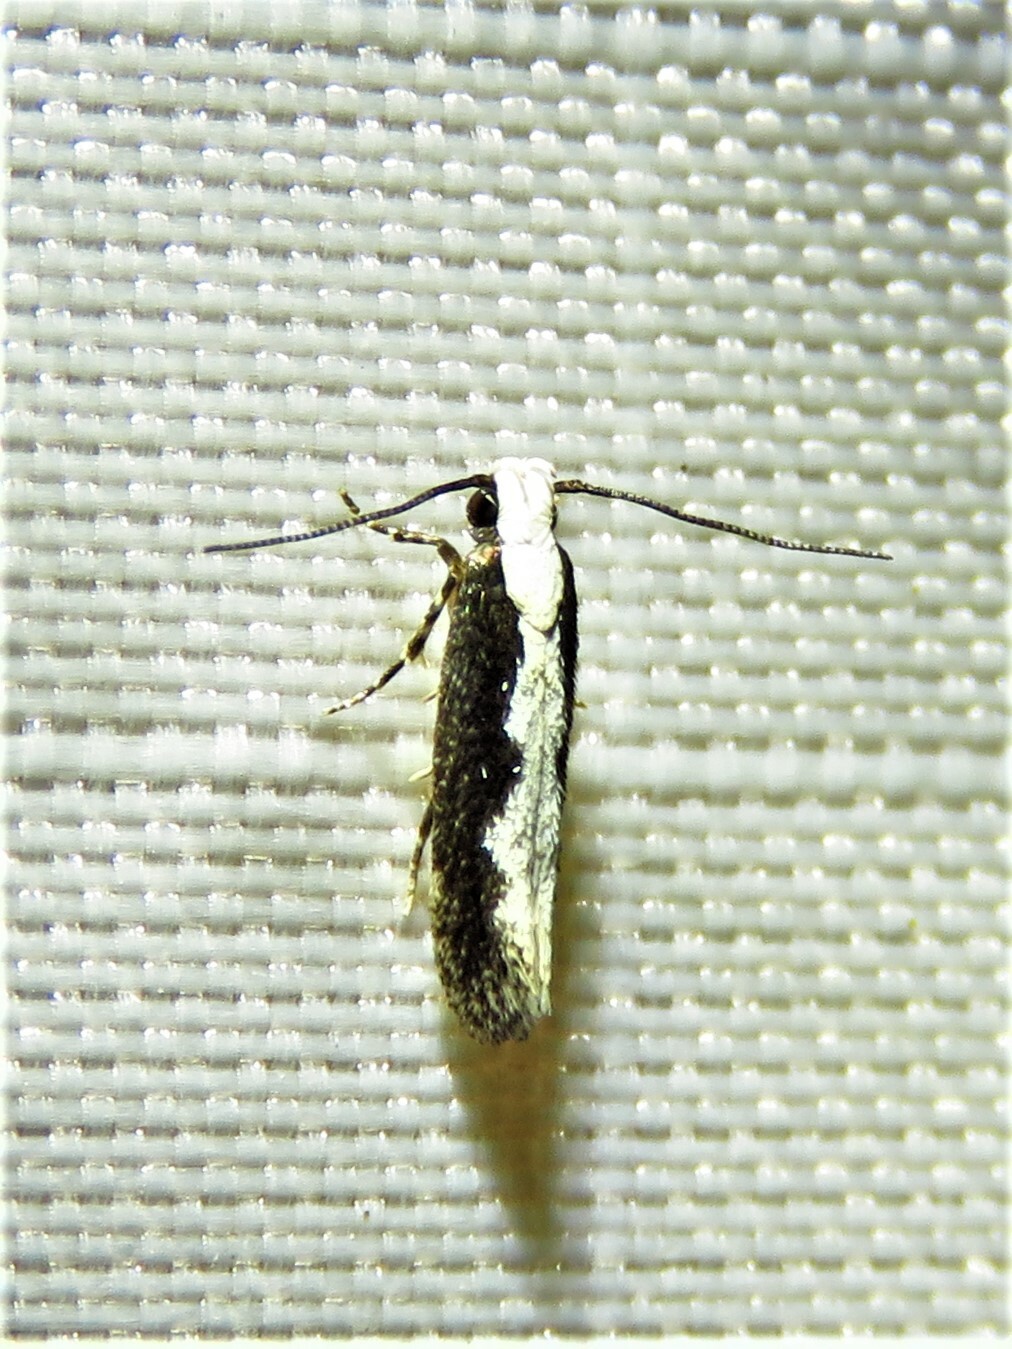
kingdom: Animalia
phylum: Arthropoda
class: Insecta
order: Lepidoptera
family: Gelechiidae
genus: Agnippe
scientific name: Agnippe prunifoliella
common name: Skunk twirler
